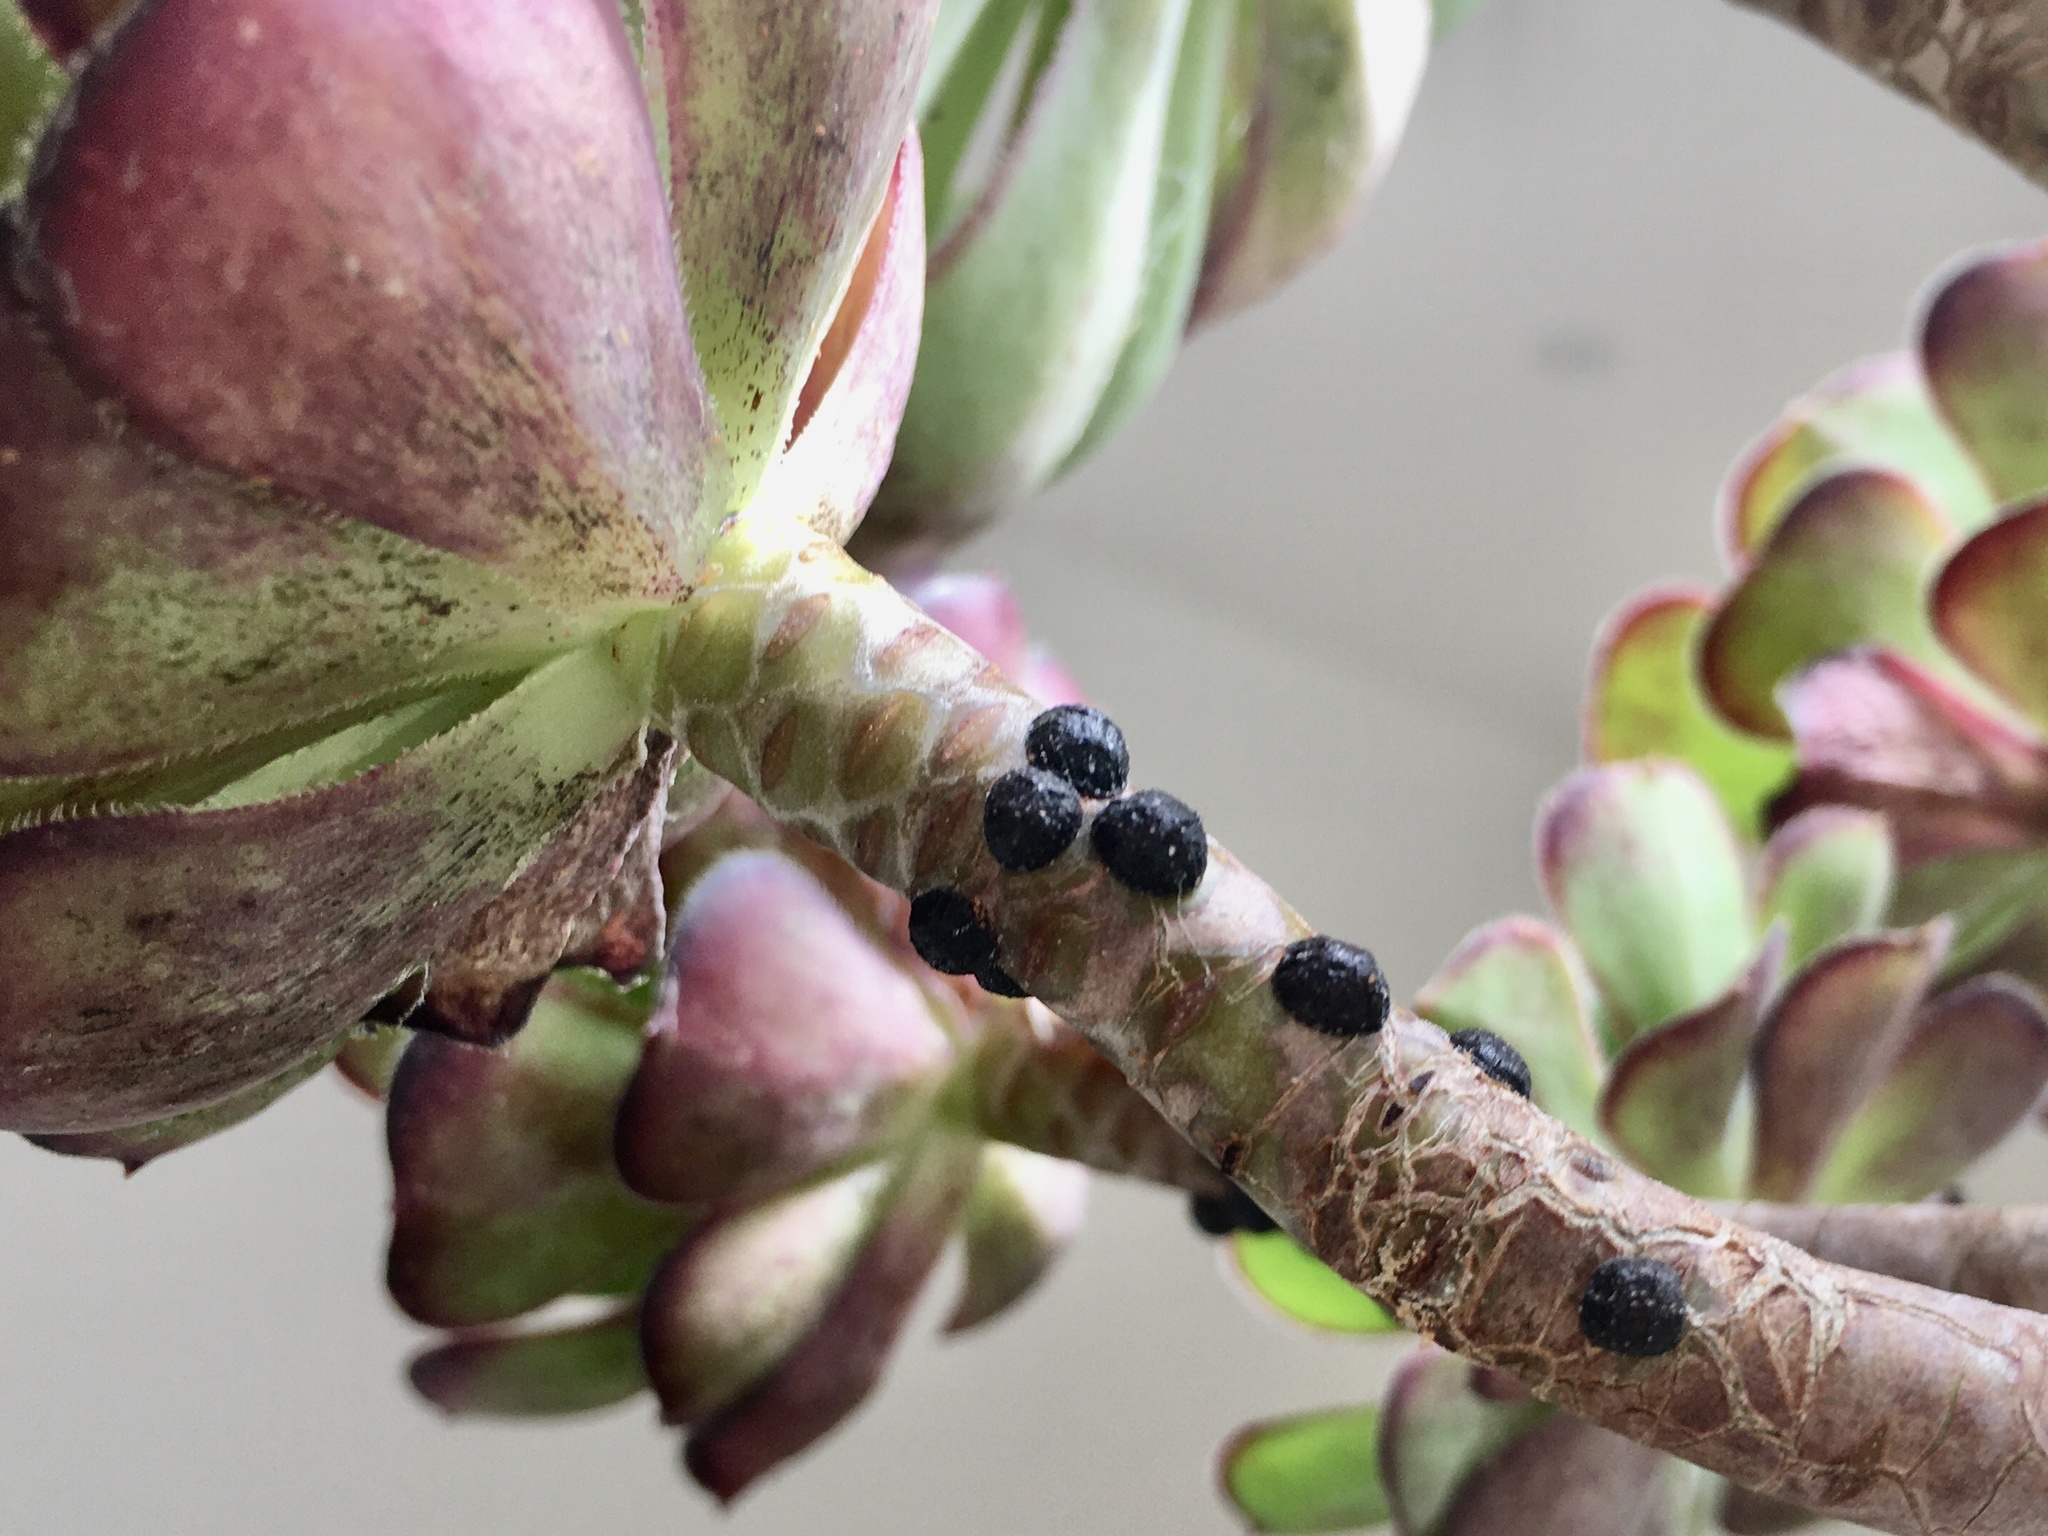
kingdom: Animalia
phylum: Arthropoda
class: Insecta
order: Hemiptera
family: Coccidae
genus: Saissetia
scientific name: Saissetia oleae
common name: Black scale
